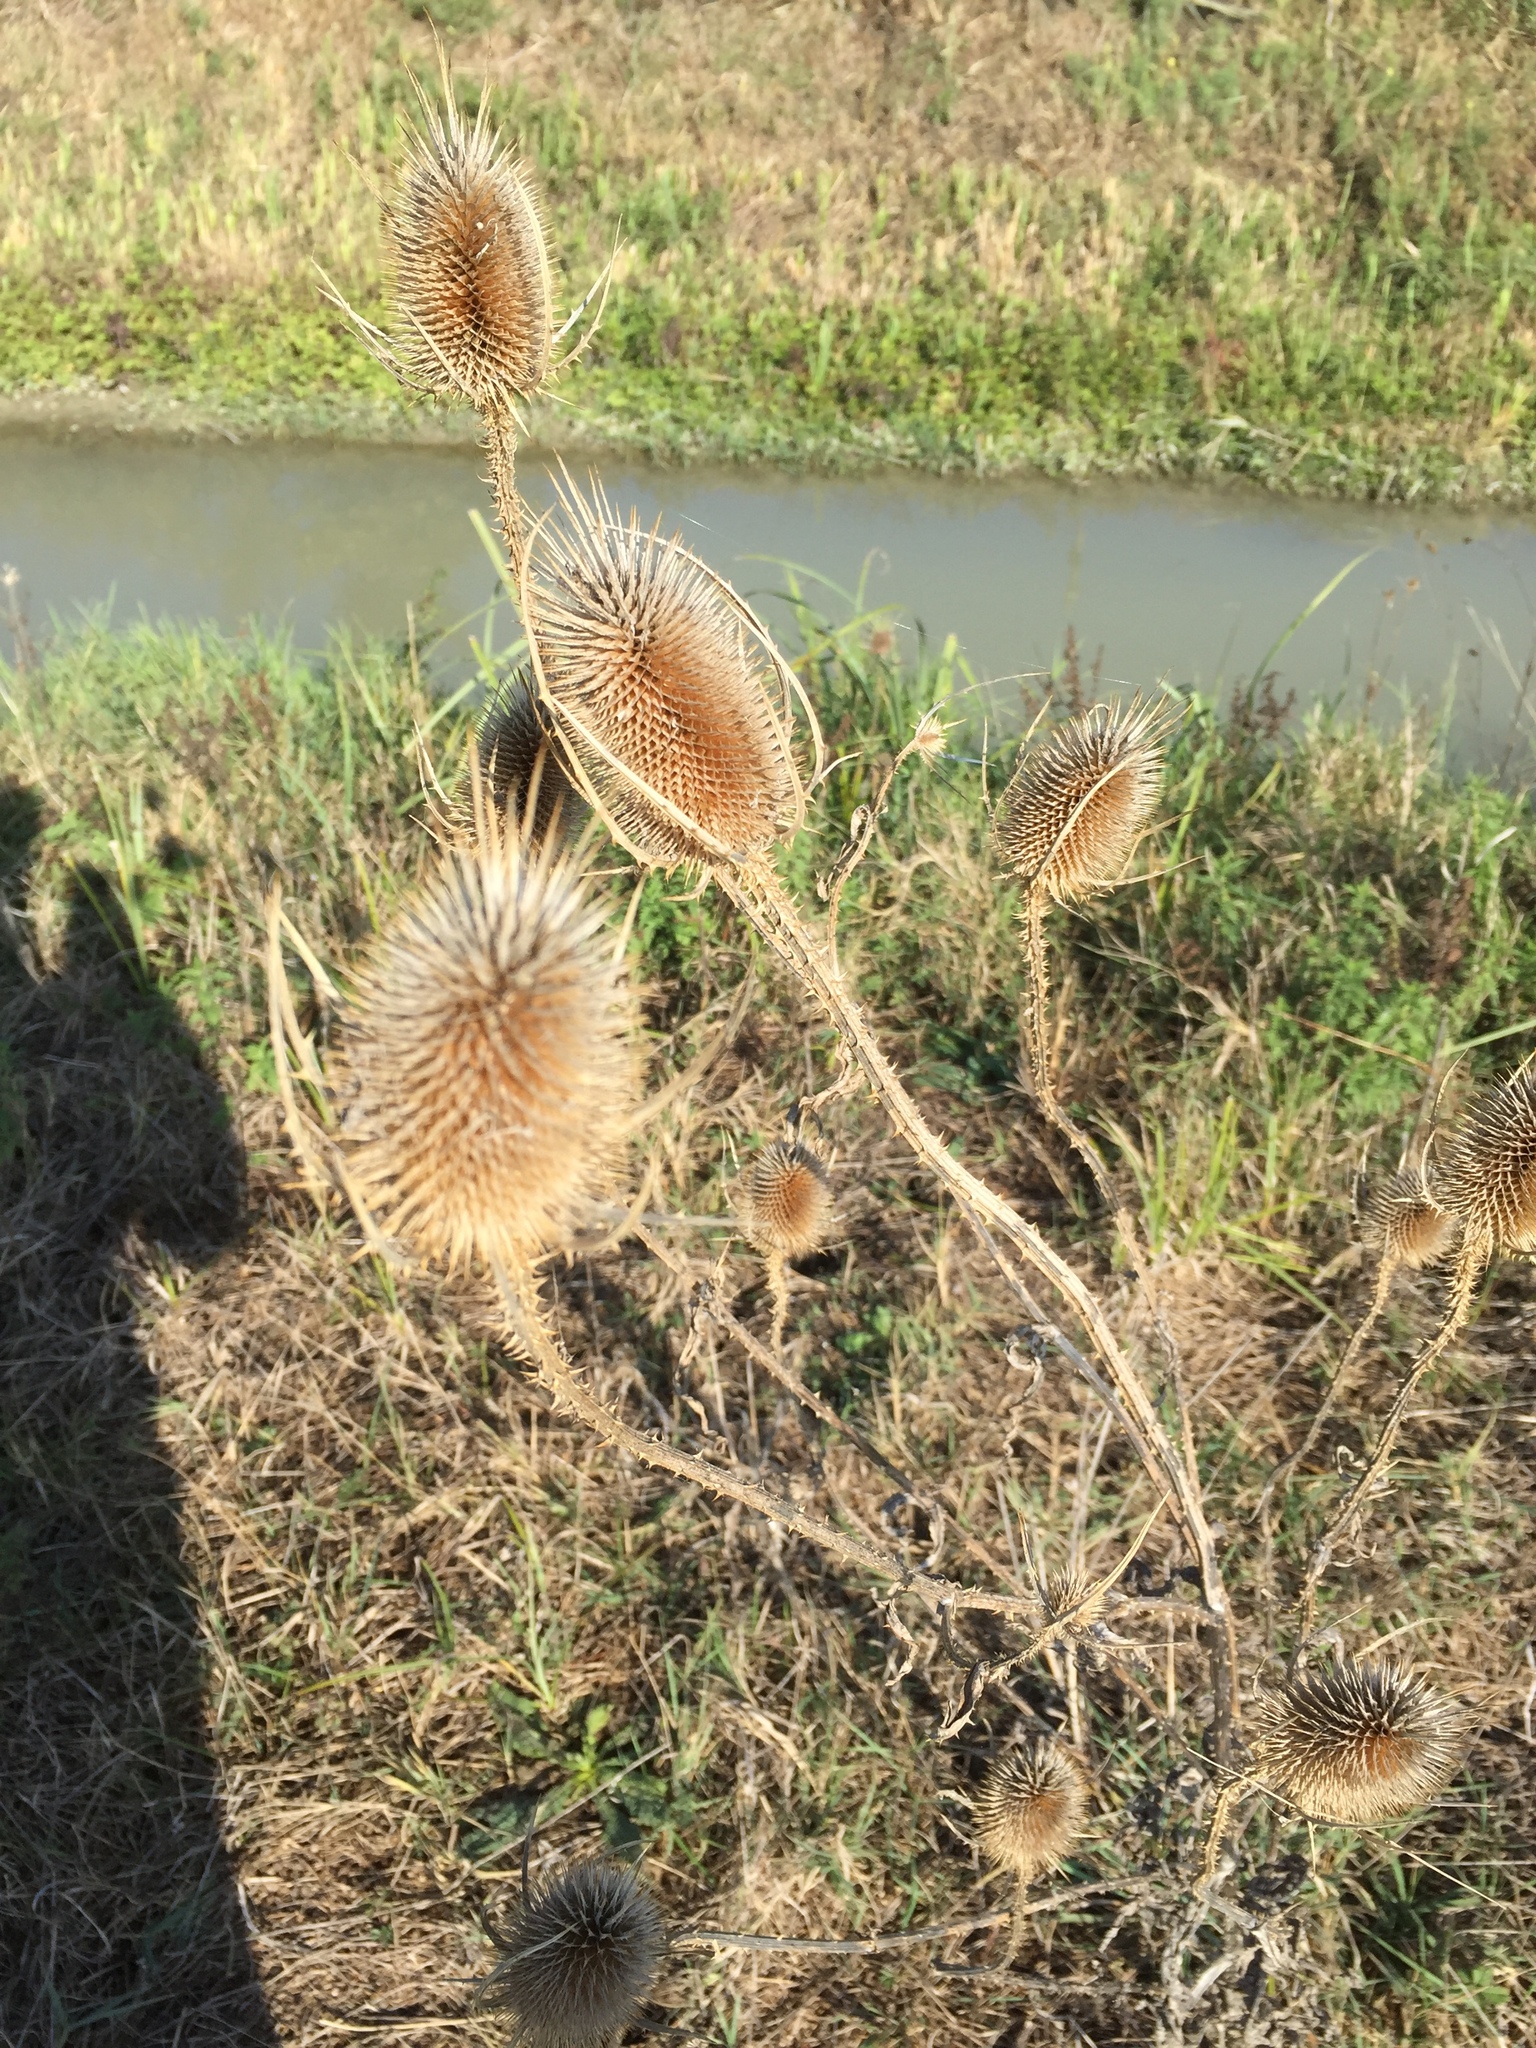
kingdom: Plantae
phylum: Tracheophyta
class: Magnoliopsida
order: Dipsacales
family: Caprifoliaceae
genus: Dipsacus
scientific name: Dipsacus fullonum
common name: Teasel
